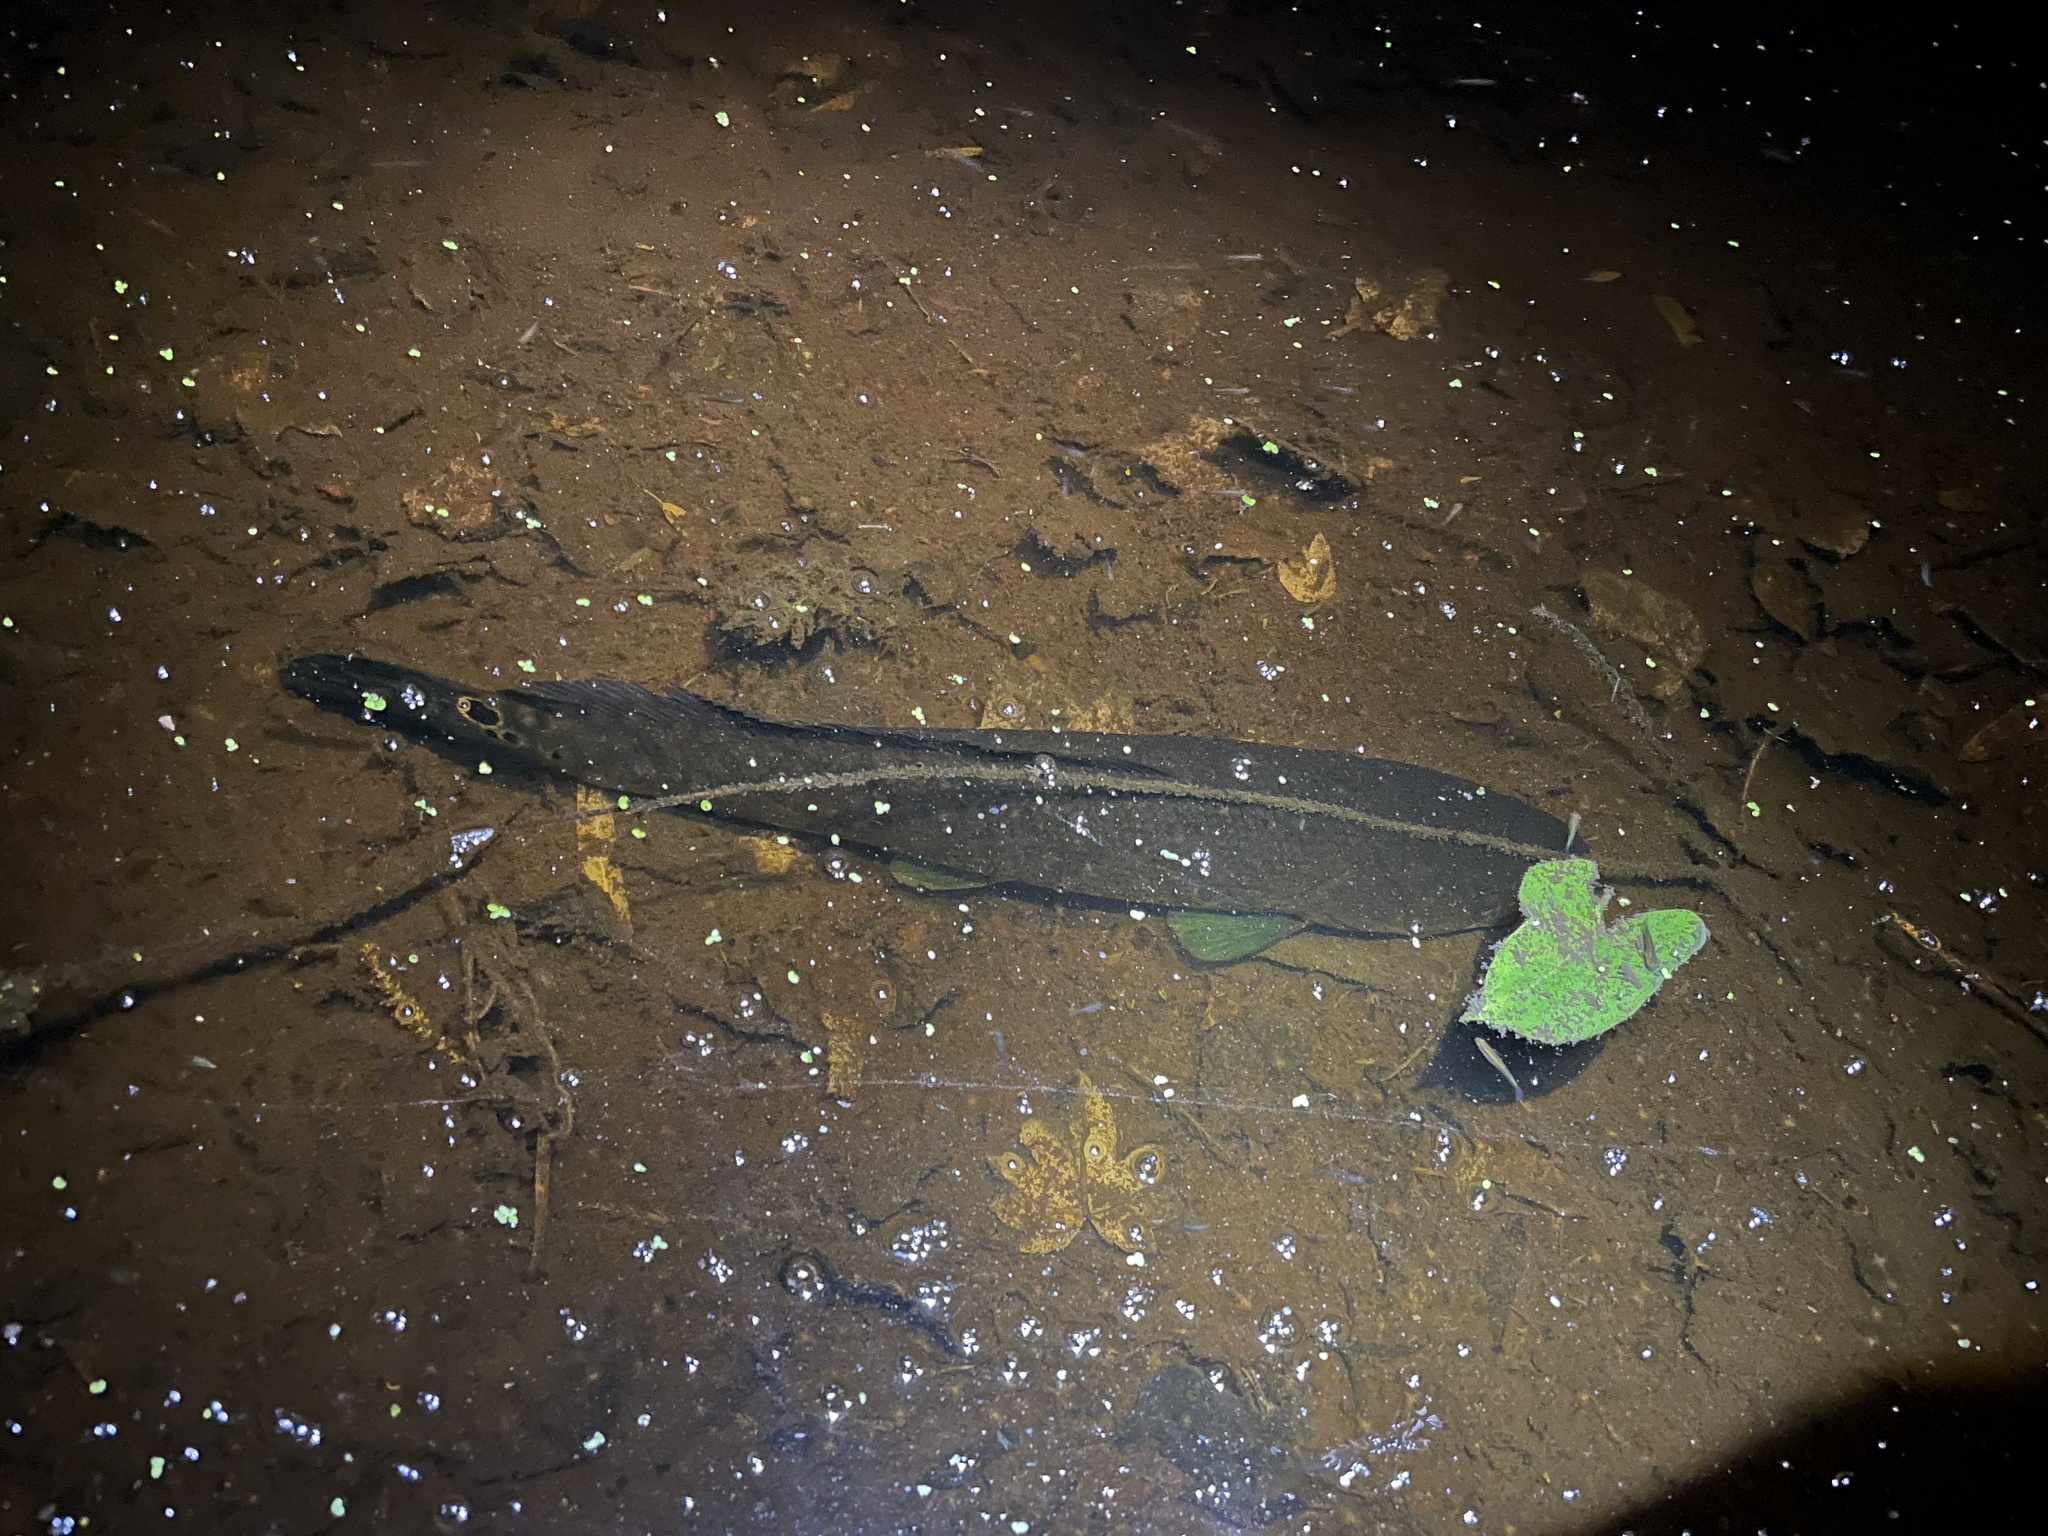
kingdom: Animalia
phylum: Chordata
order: Amiiformes
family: Amiidae
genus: Amia
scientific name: Amia calva
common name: Bowfin
